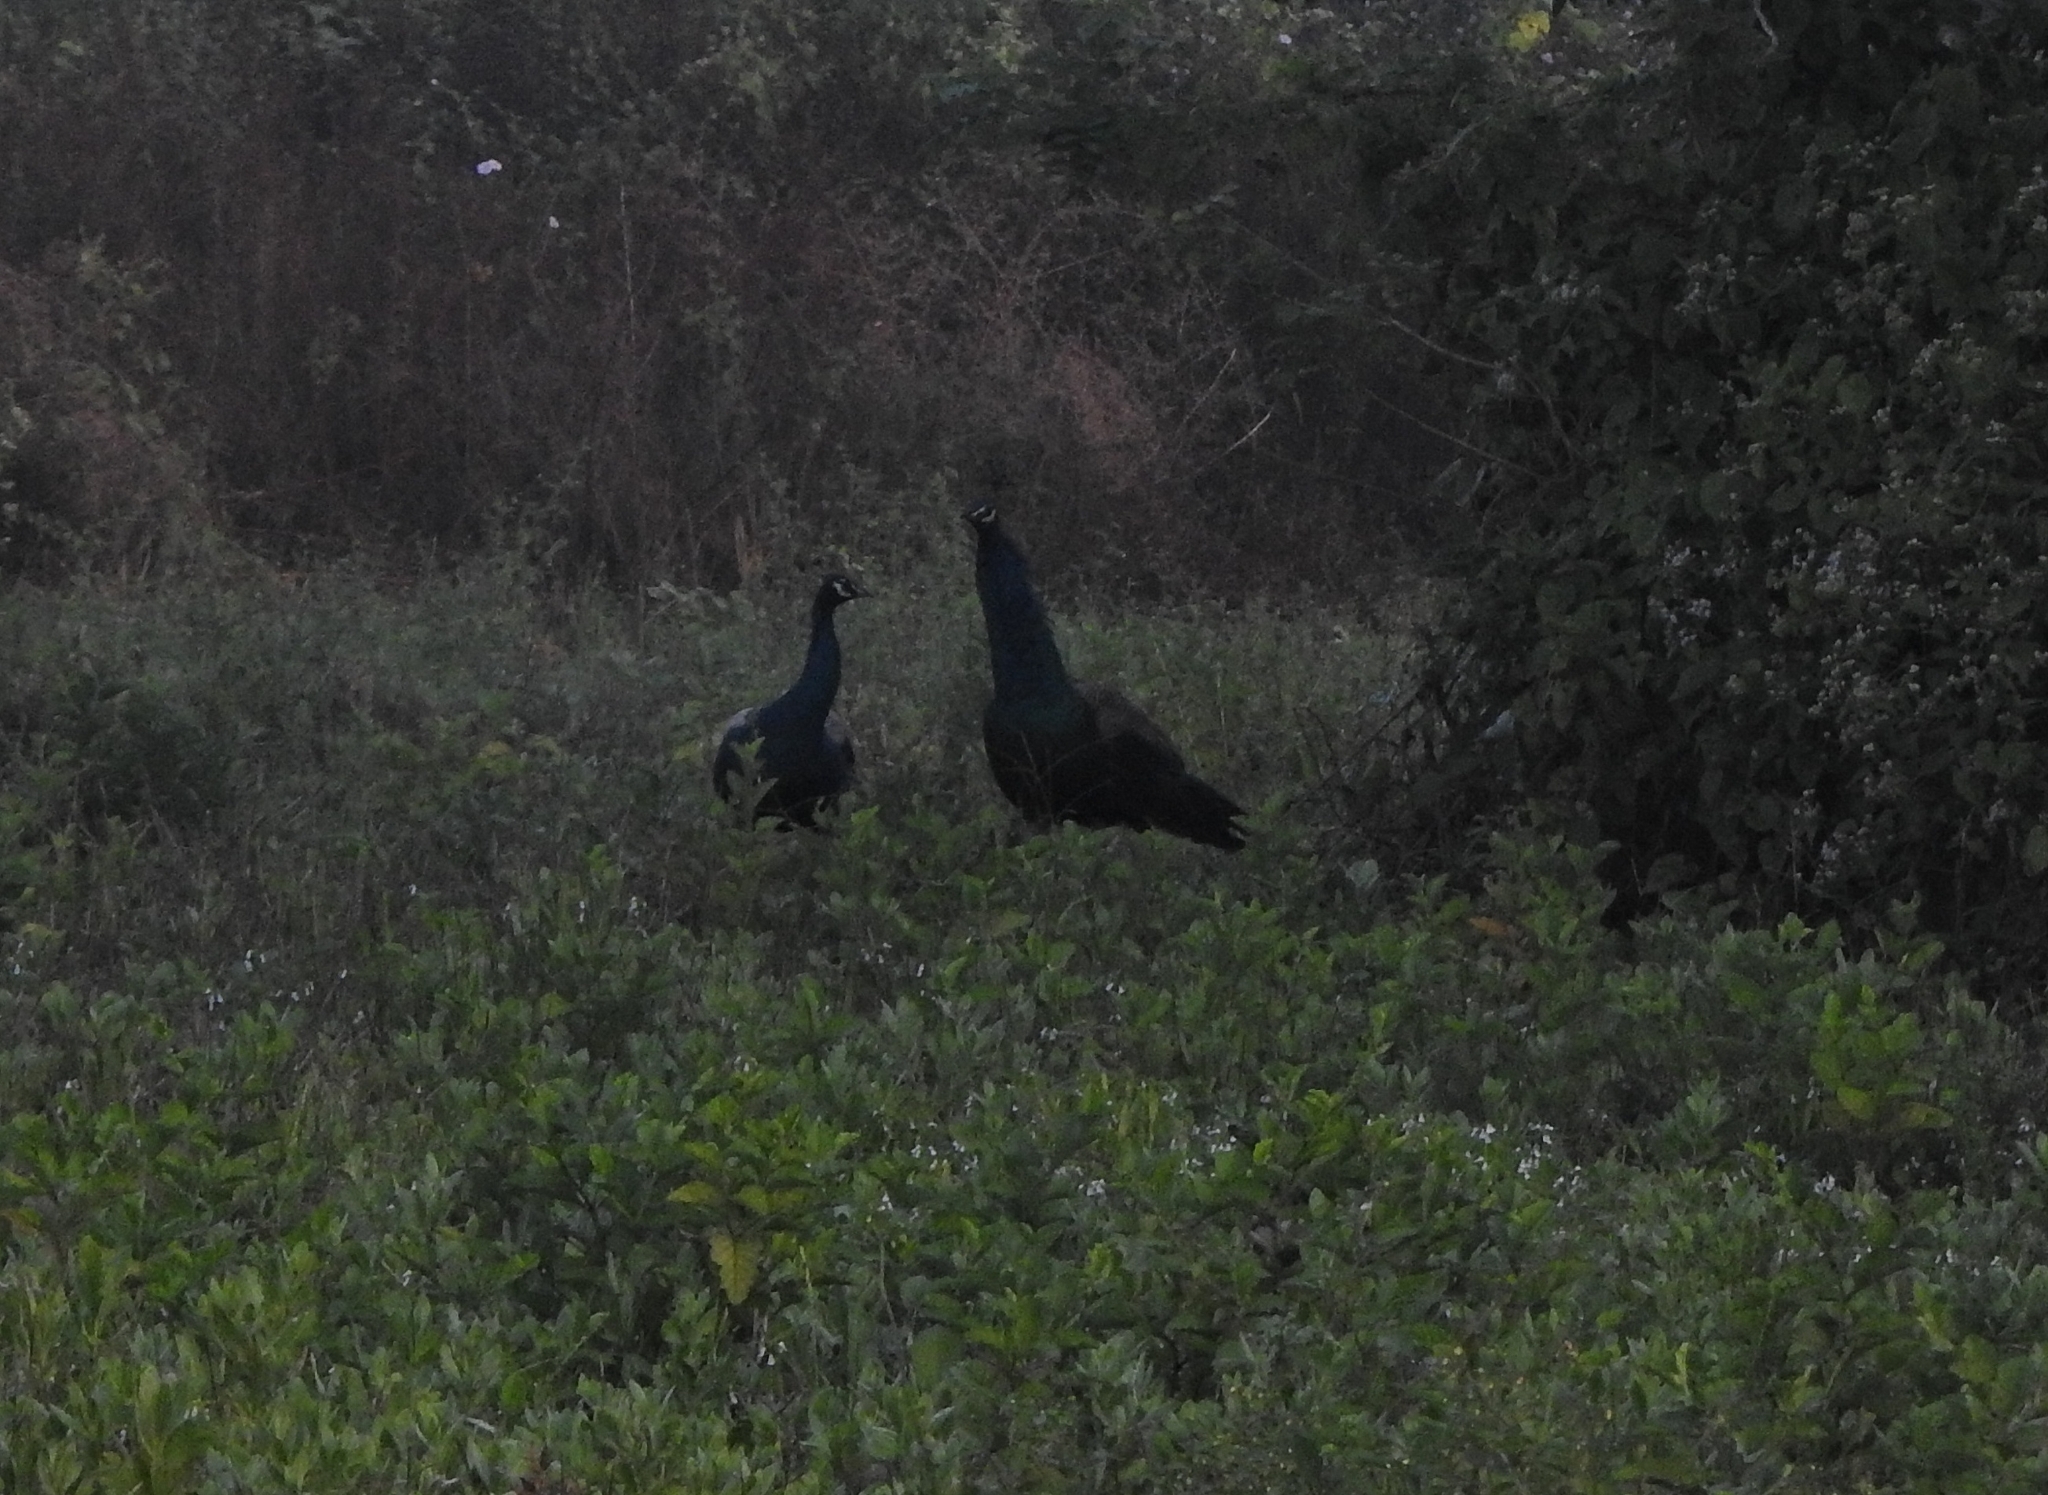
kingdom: Animalia
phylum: Chordata
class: Aves
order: Galliformes
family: Phasianidae
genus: Pavo
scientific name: Pavo cristatus
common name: Indian peafowl
